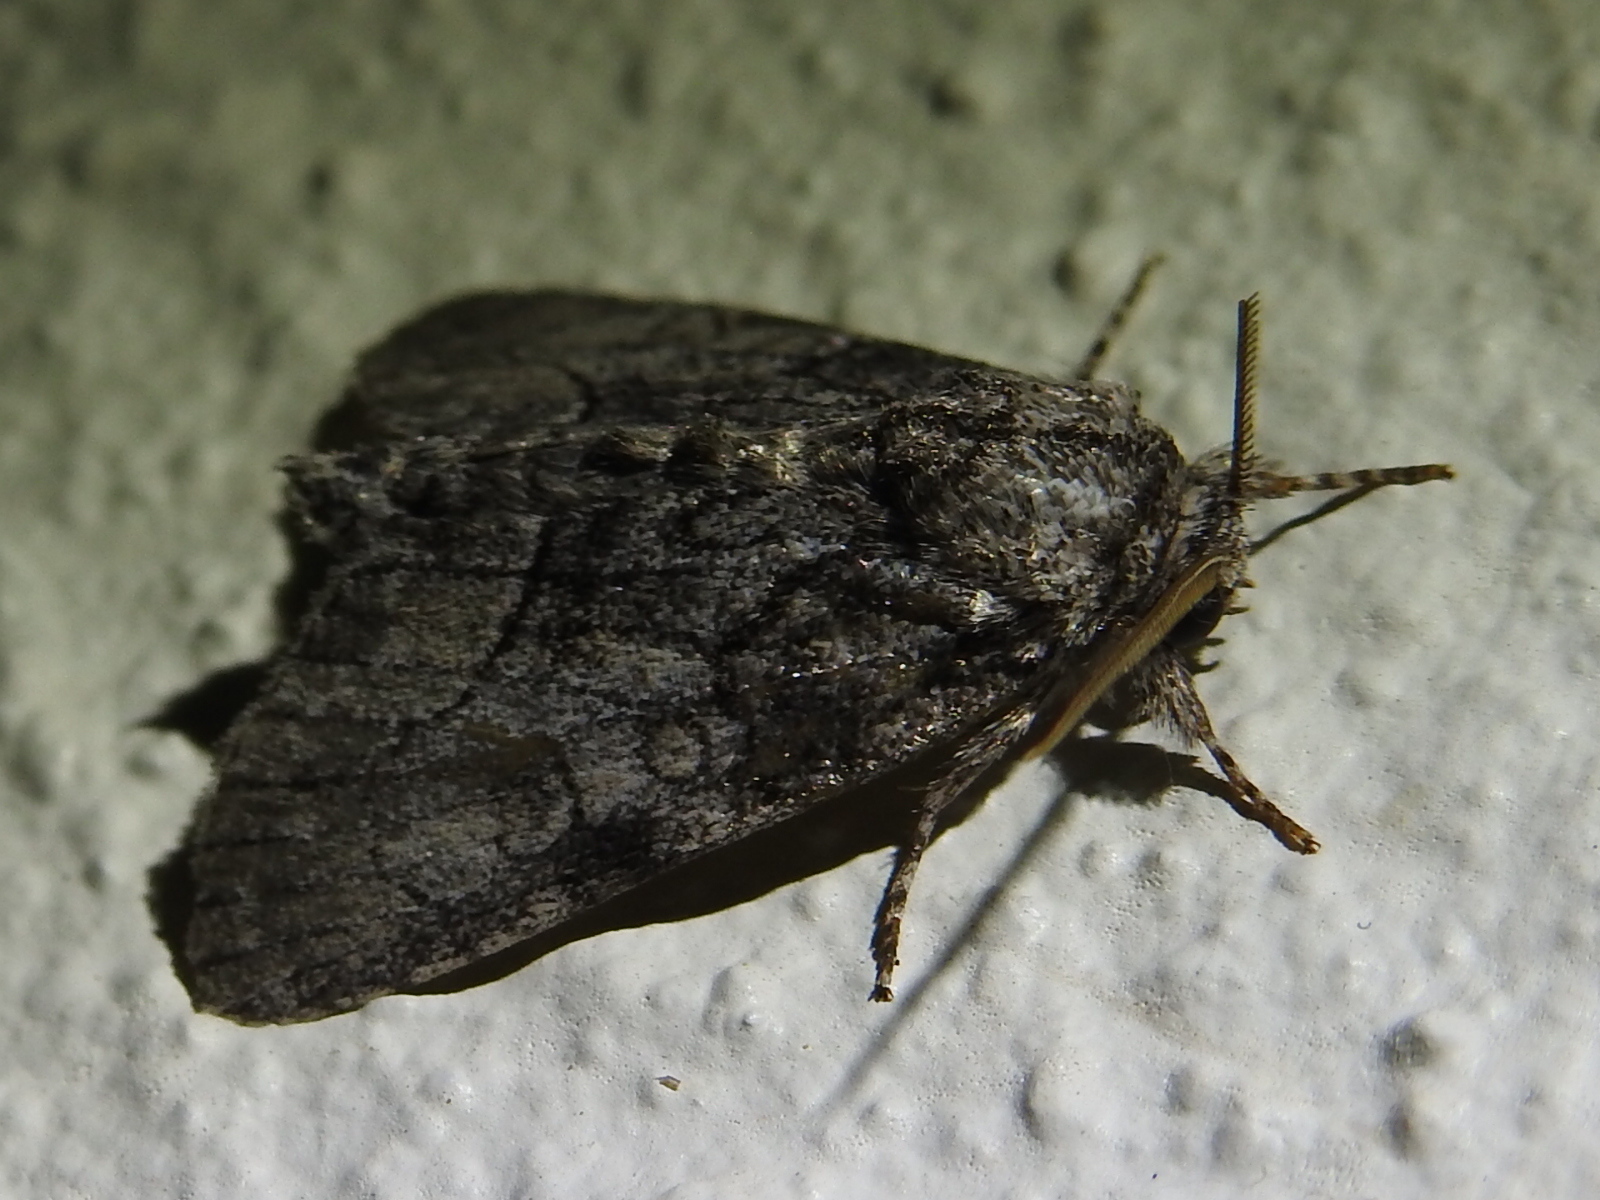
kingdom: Animalia
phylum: Arthropoda
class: Insecta
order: Lepidoptera
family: Noctuidae
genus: Raphia
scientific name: Raphia frater
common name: Brother
